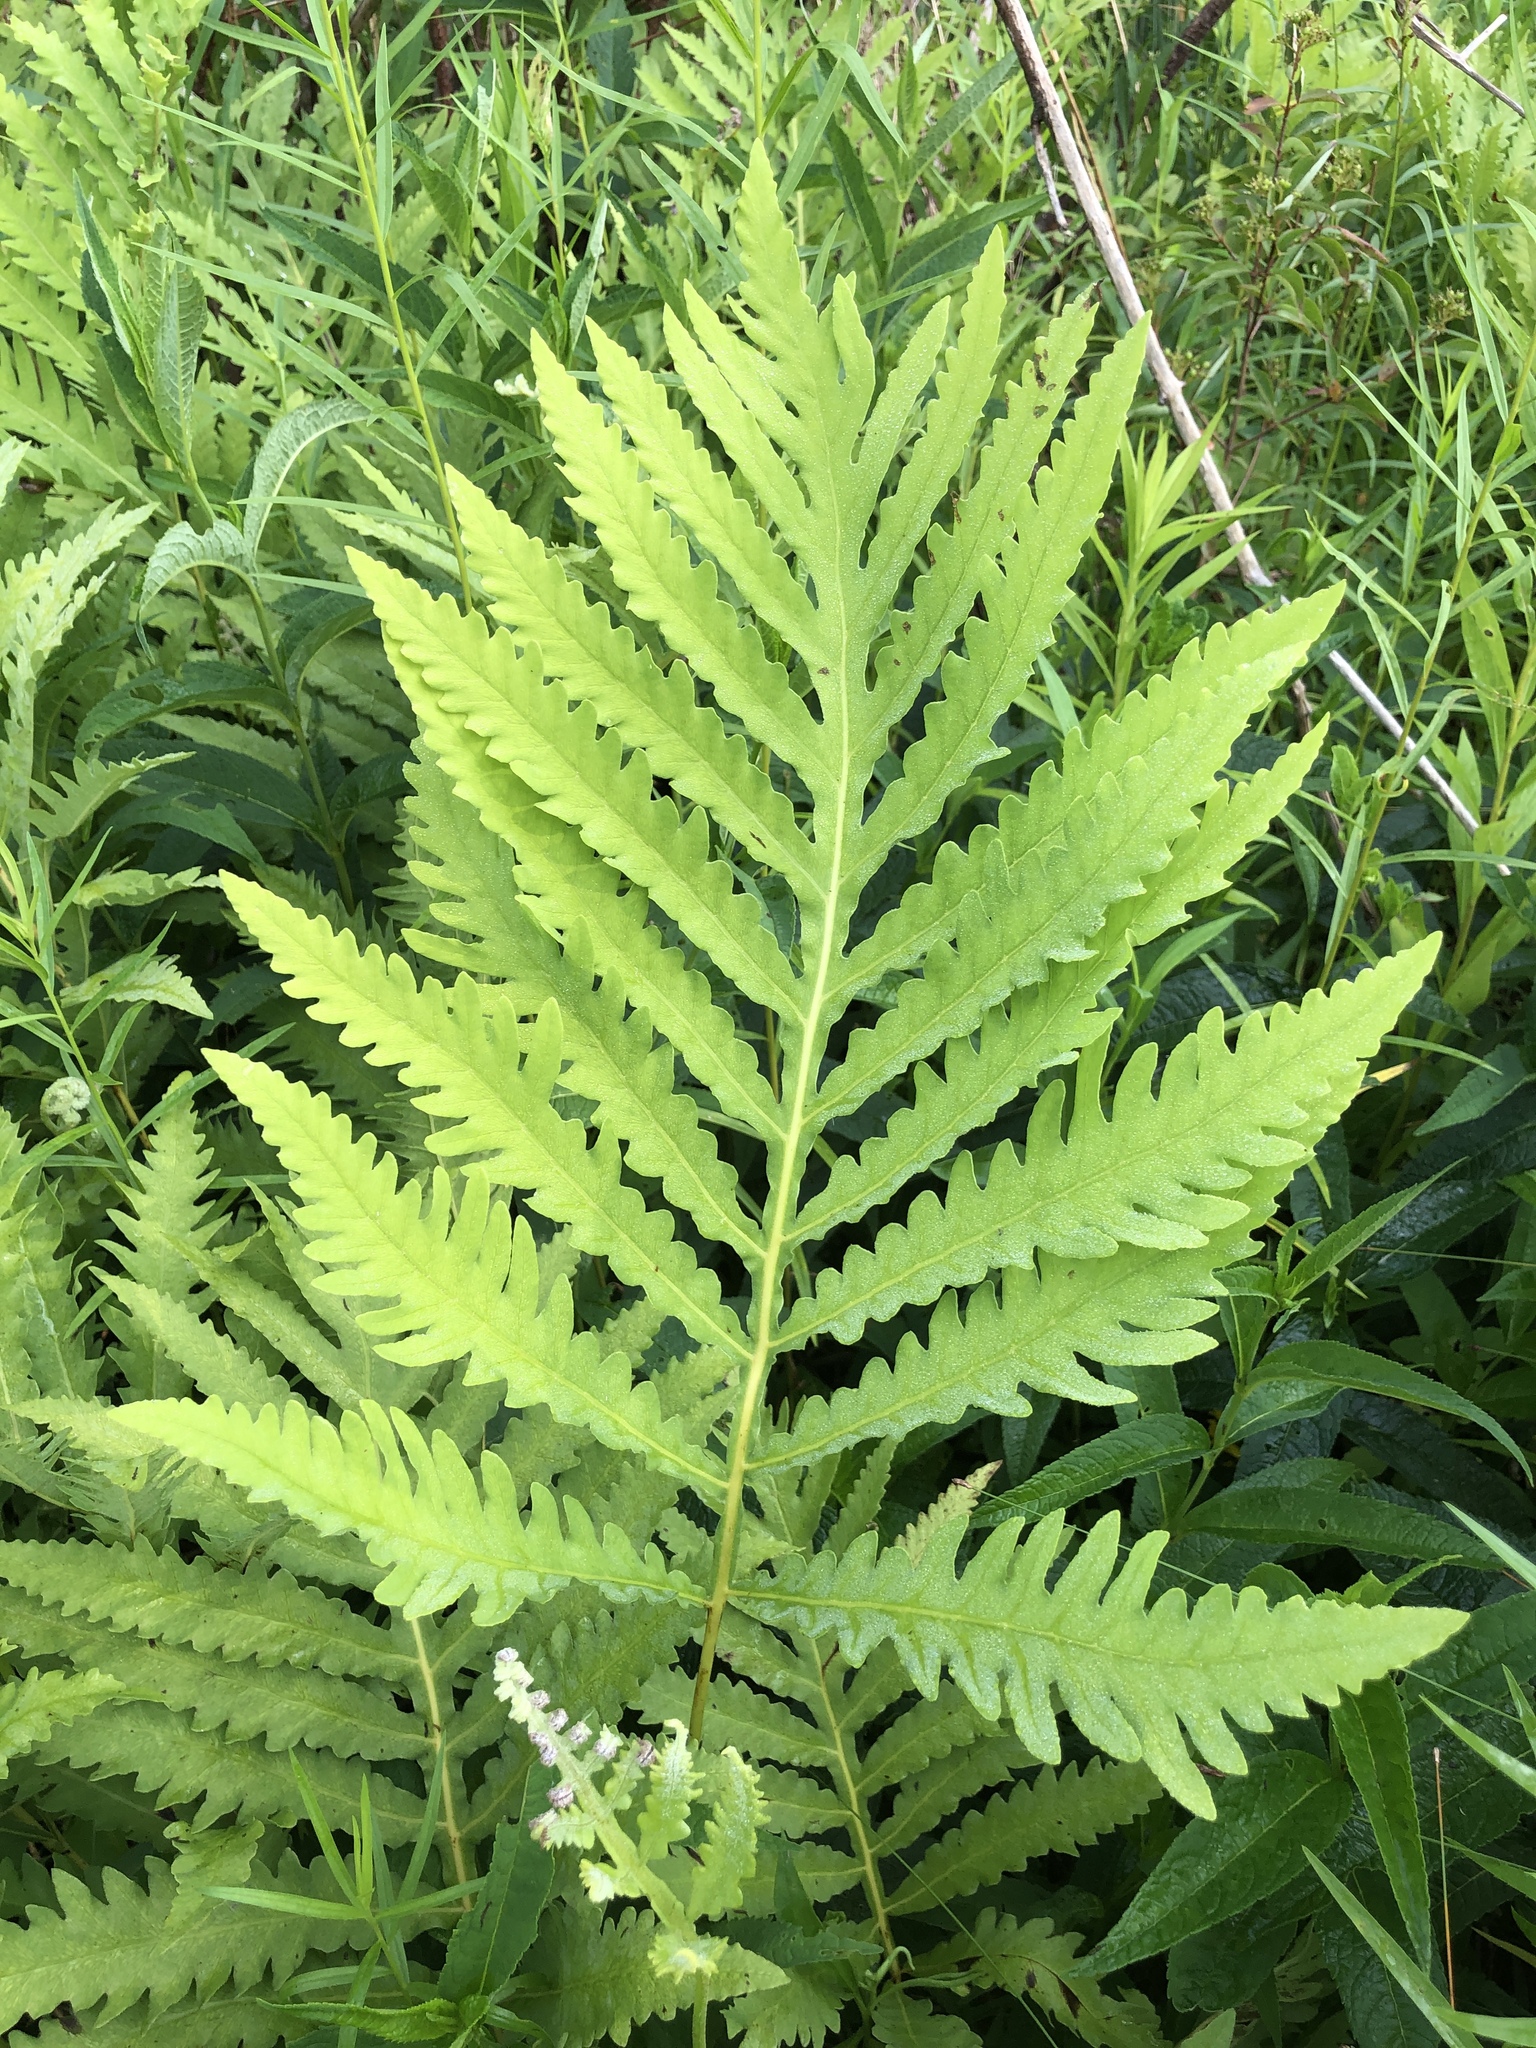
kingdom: Plantae
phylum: Tracheophyta
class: Polypodiopsida
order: Polypodiales
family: Onocleaceae
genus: Onoclea
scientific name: Onoclea sensibilis
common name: Sensitive fern
